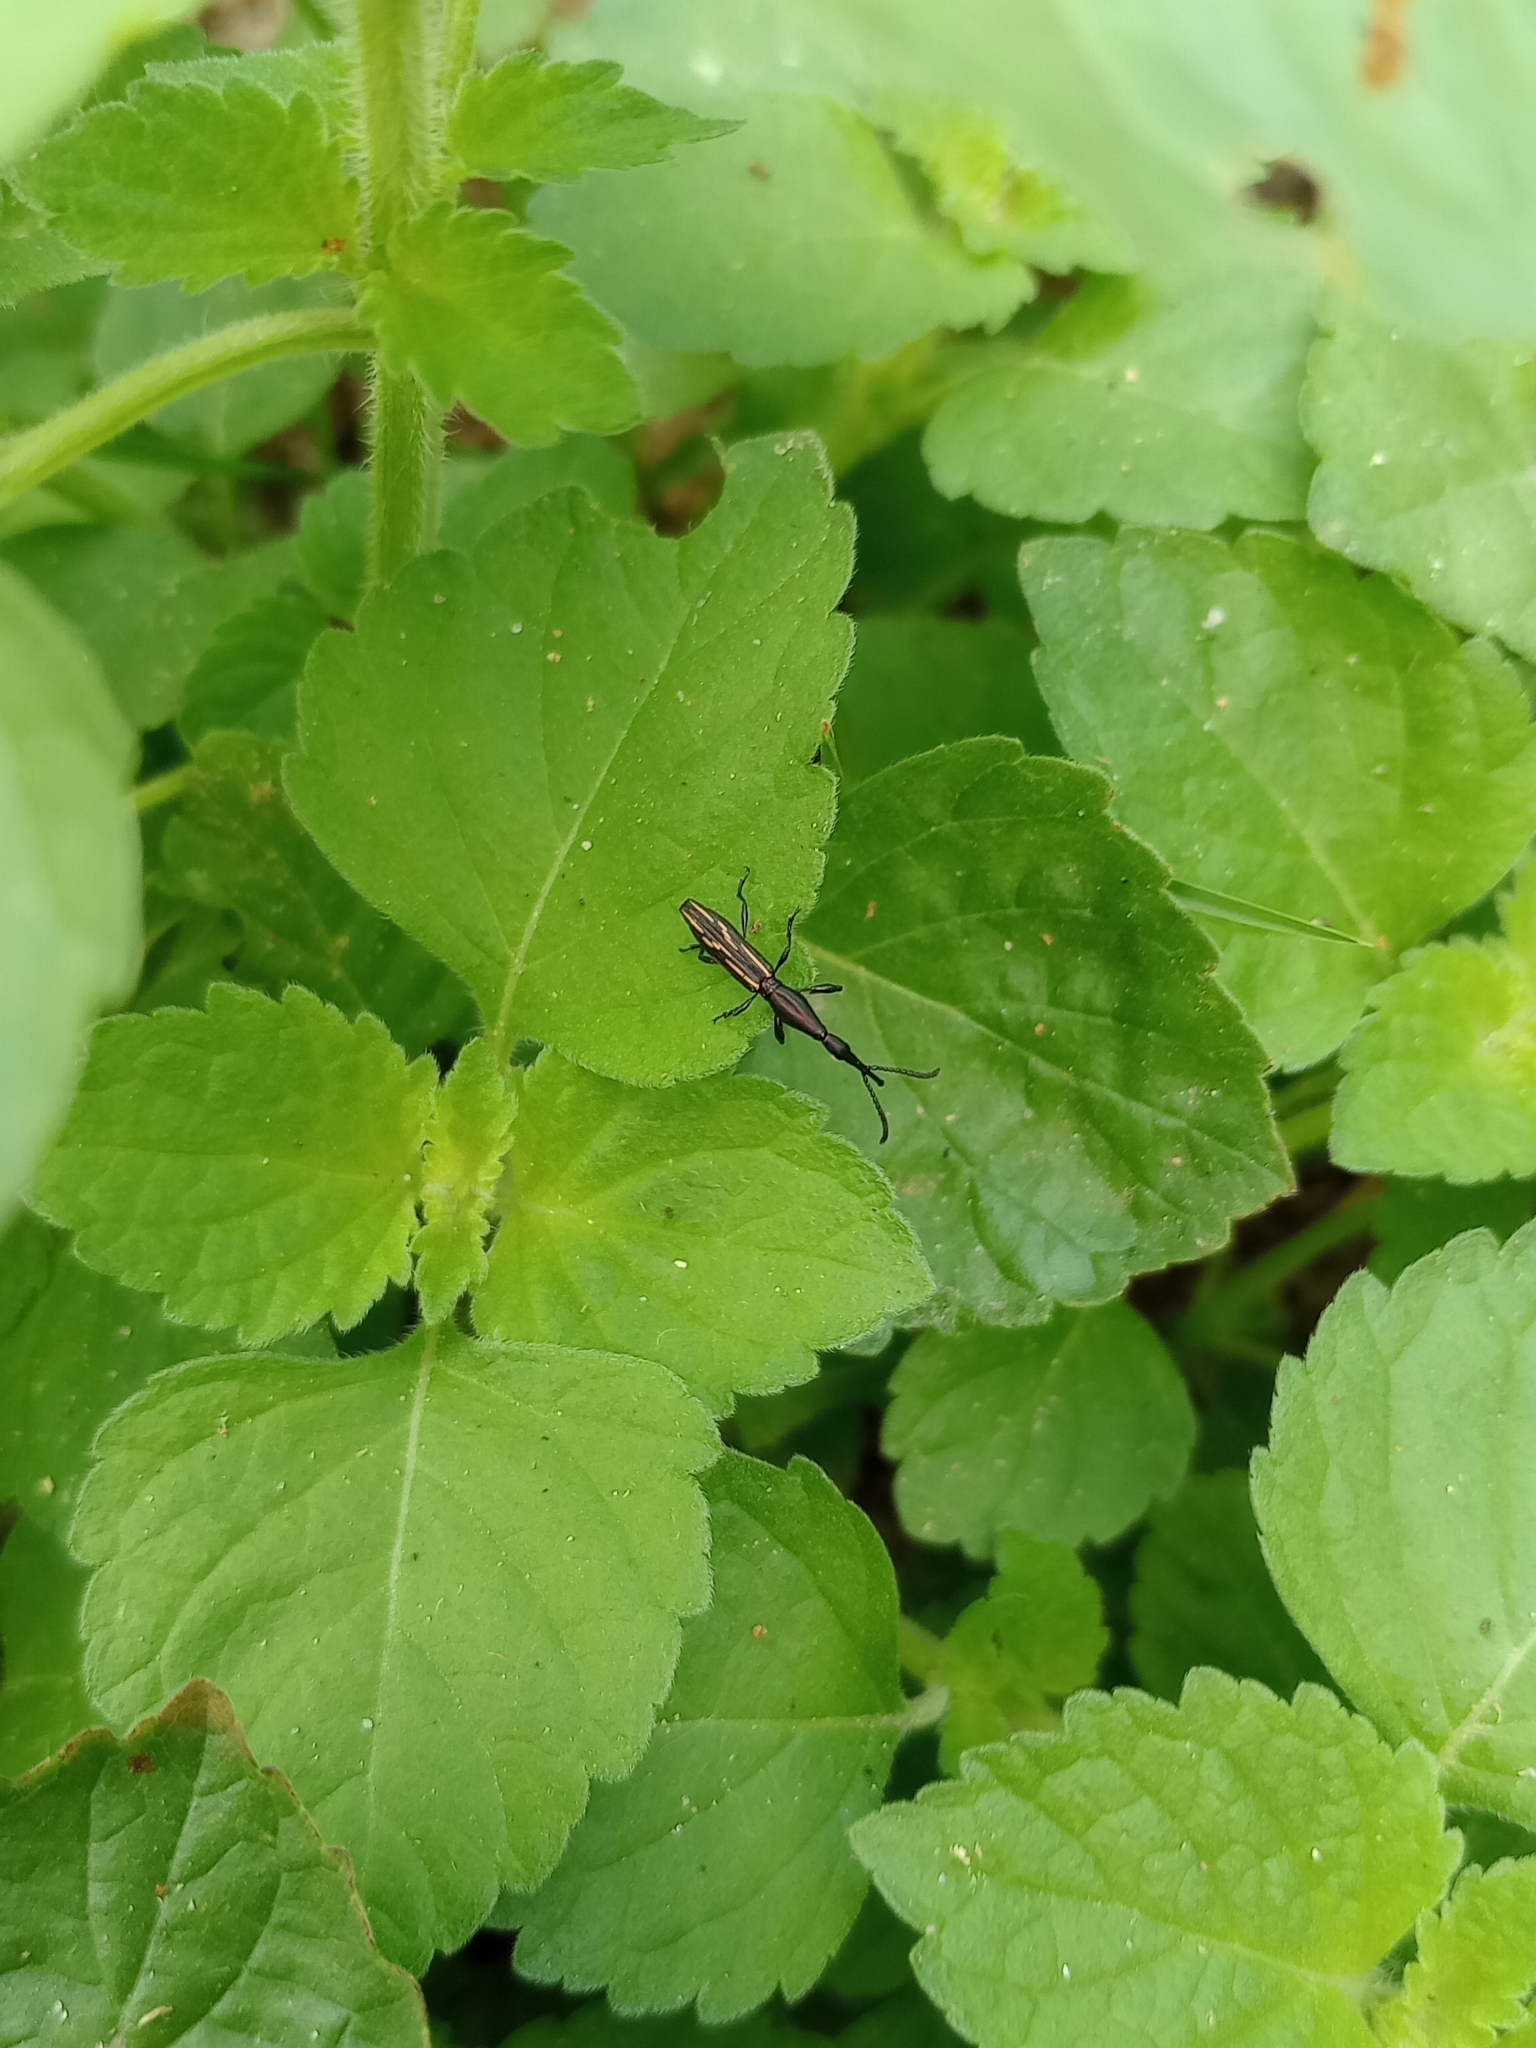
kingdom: Animalia
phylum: Arthropoda
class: Insecta
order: Coleoptera
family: Brentidae
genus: Brentus
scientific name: Brentus rufiventris
